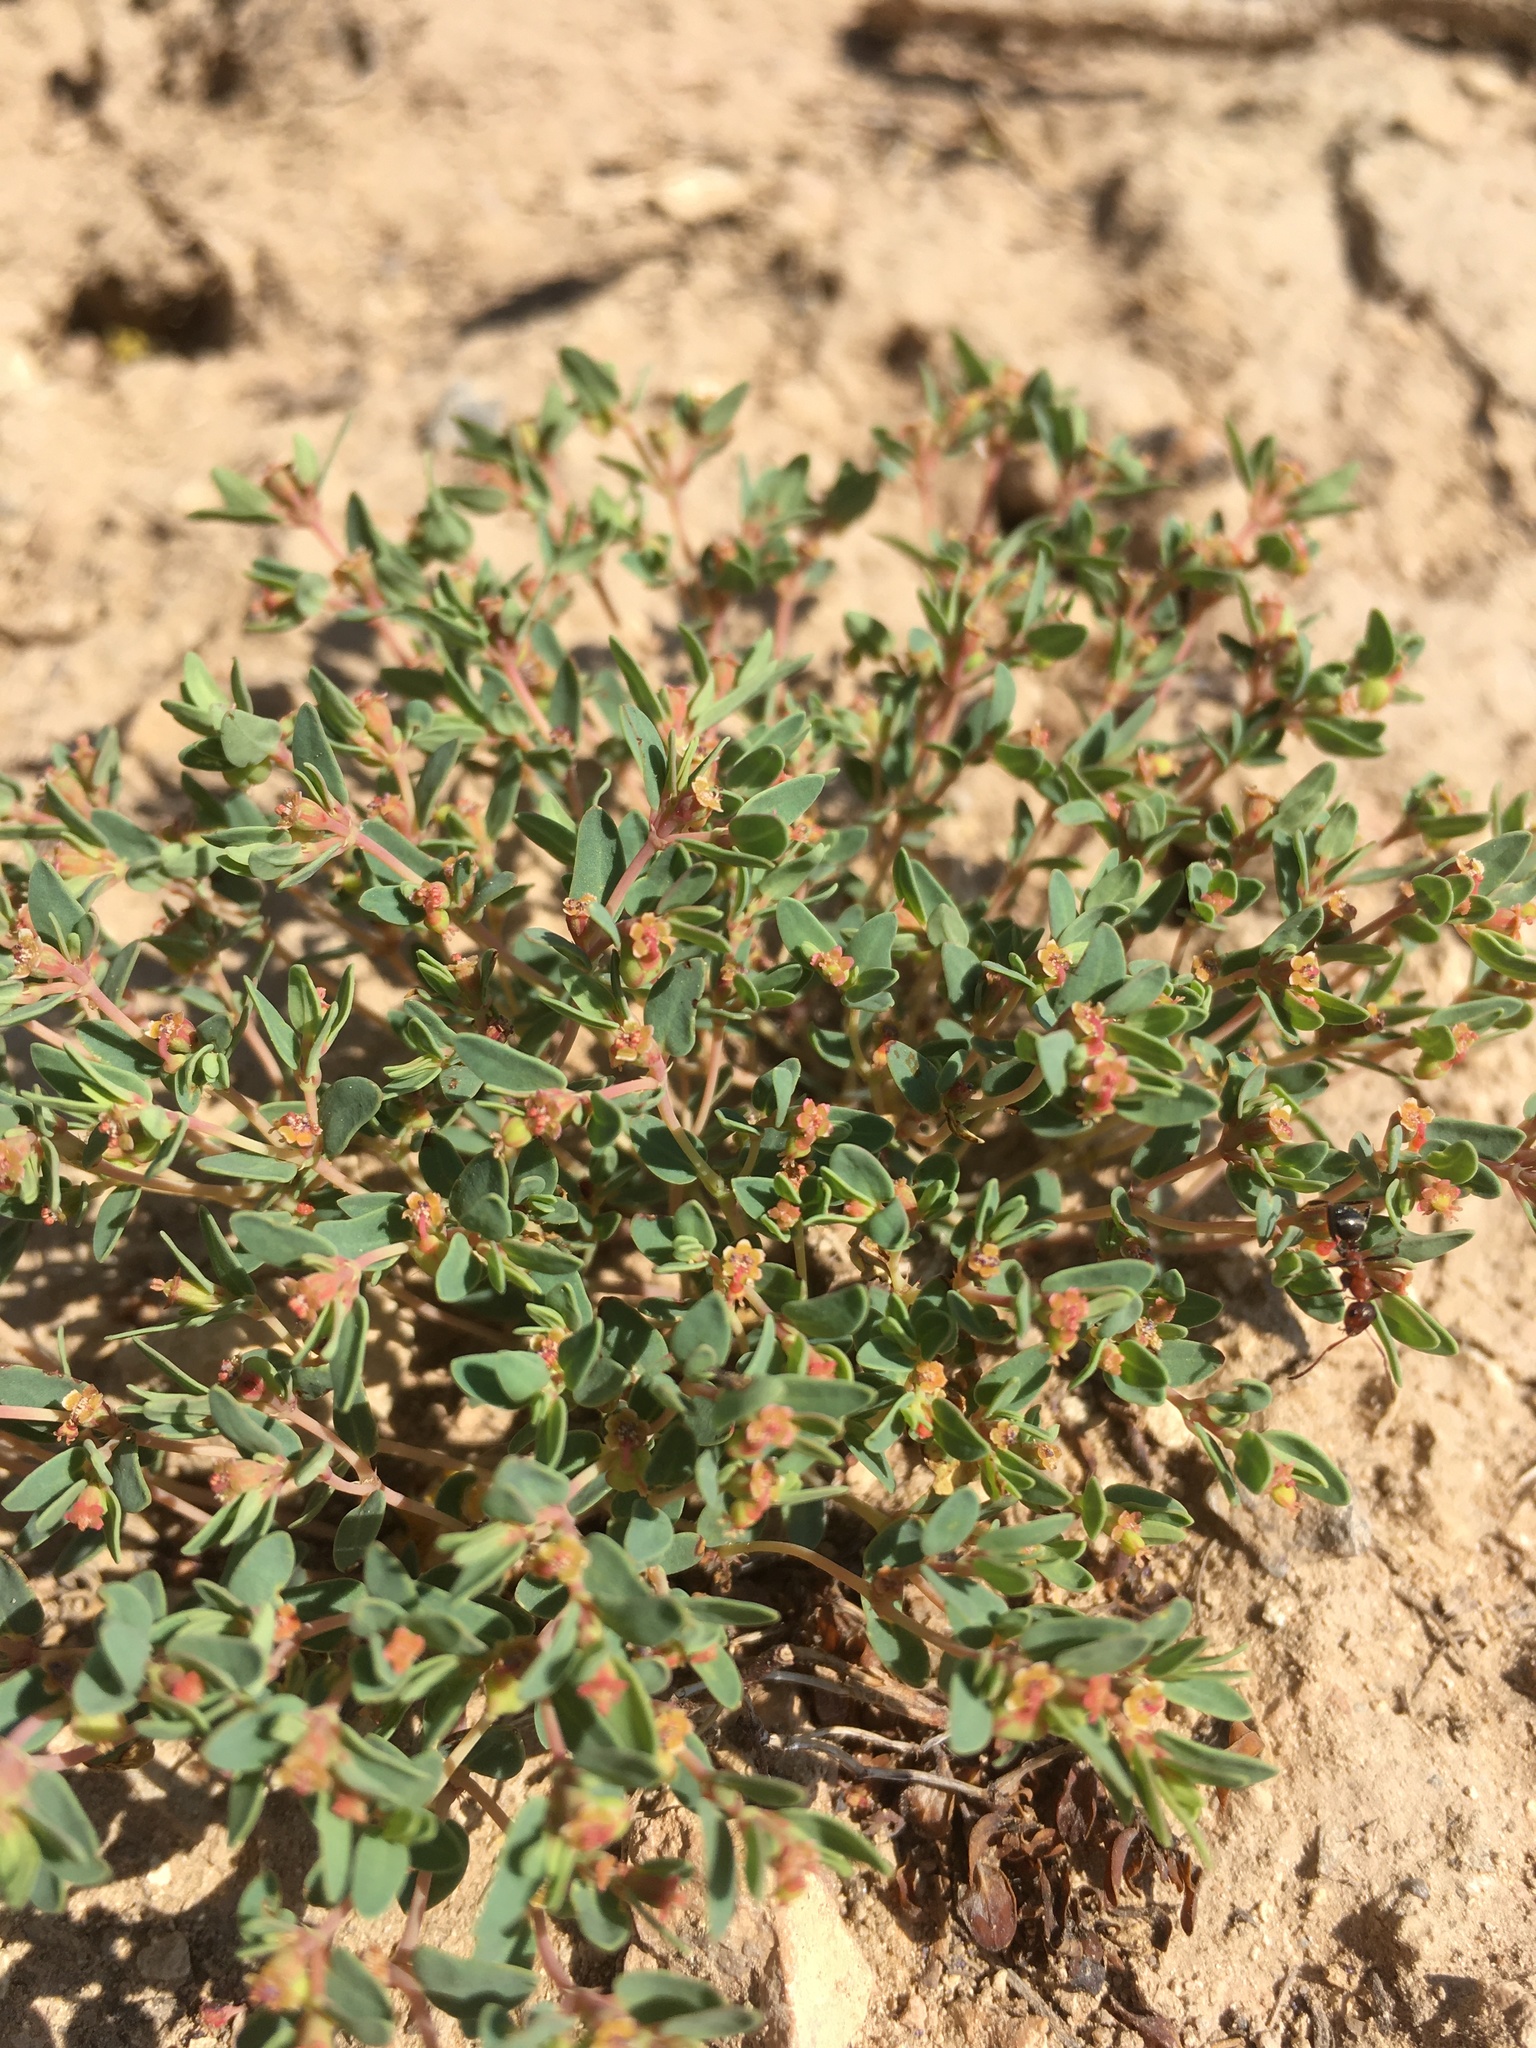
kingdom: Plantae
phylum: Tracheophyta
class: Magnoliopsida
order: Malpighiales
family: Euphorbiaceae
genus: Euphorbia
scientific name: Euphorbia chaetocalyx
